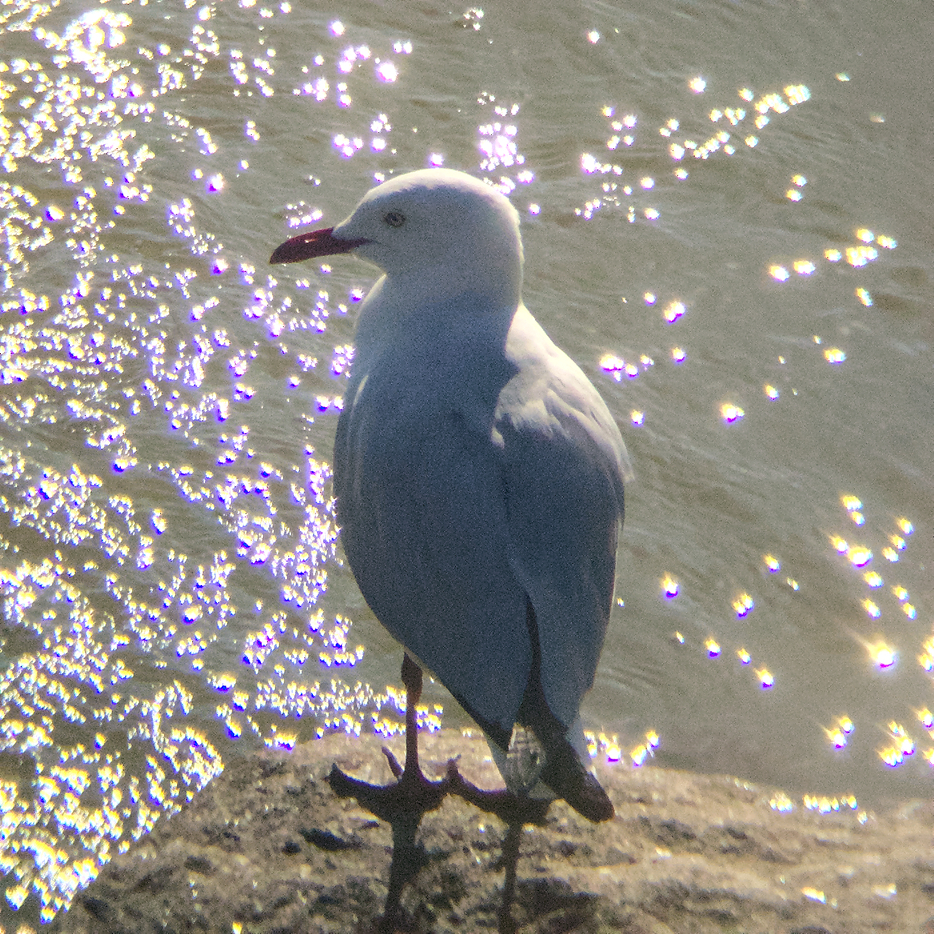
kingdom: Animalia
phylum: Chordata
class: Aves
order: Charadriiformes
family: Laridae
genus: Chroicocephalus
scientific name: Chroicocephalus novaehollandiae
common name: Silver gull
